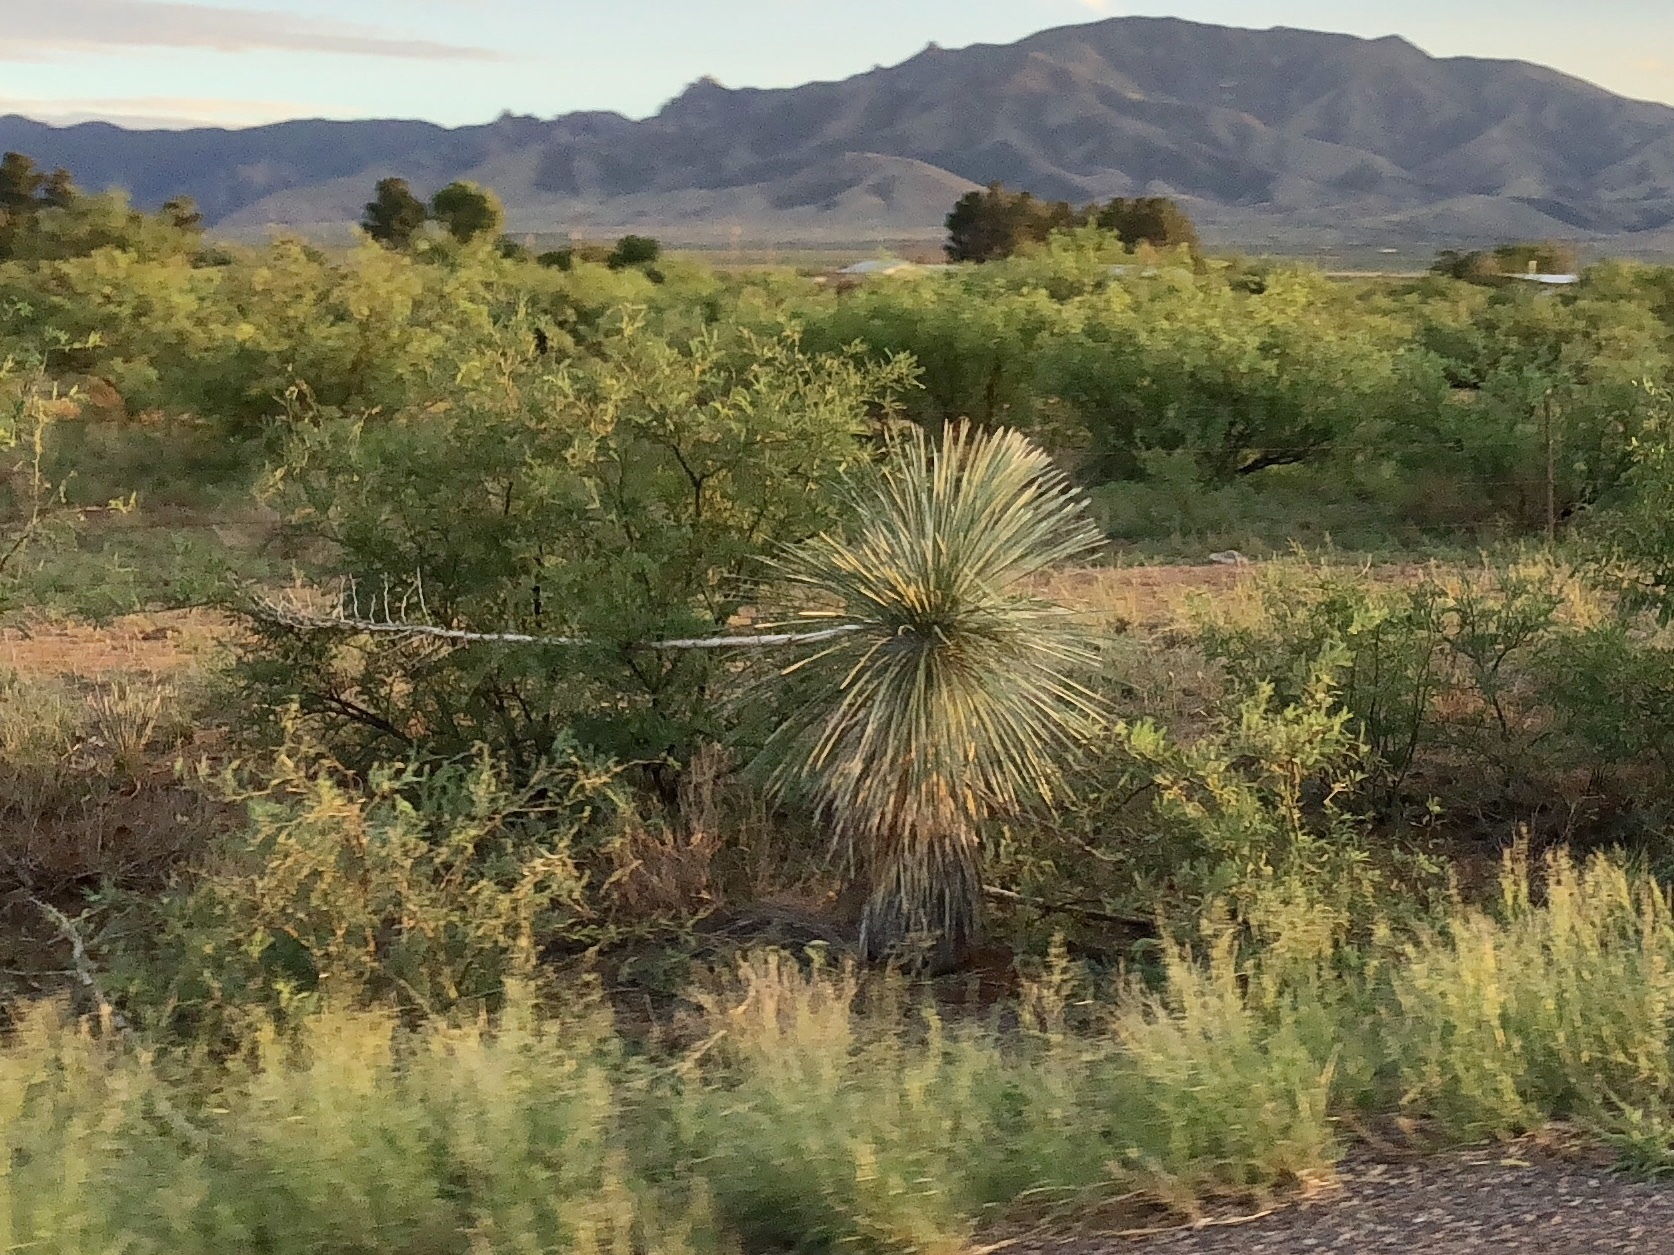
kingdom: Plantae
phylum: Tracheophyta
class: Liliopsida
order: Asparagales
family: Asparagaceae
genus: Yucca
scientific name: Yucca elata
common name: Palmella
